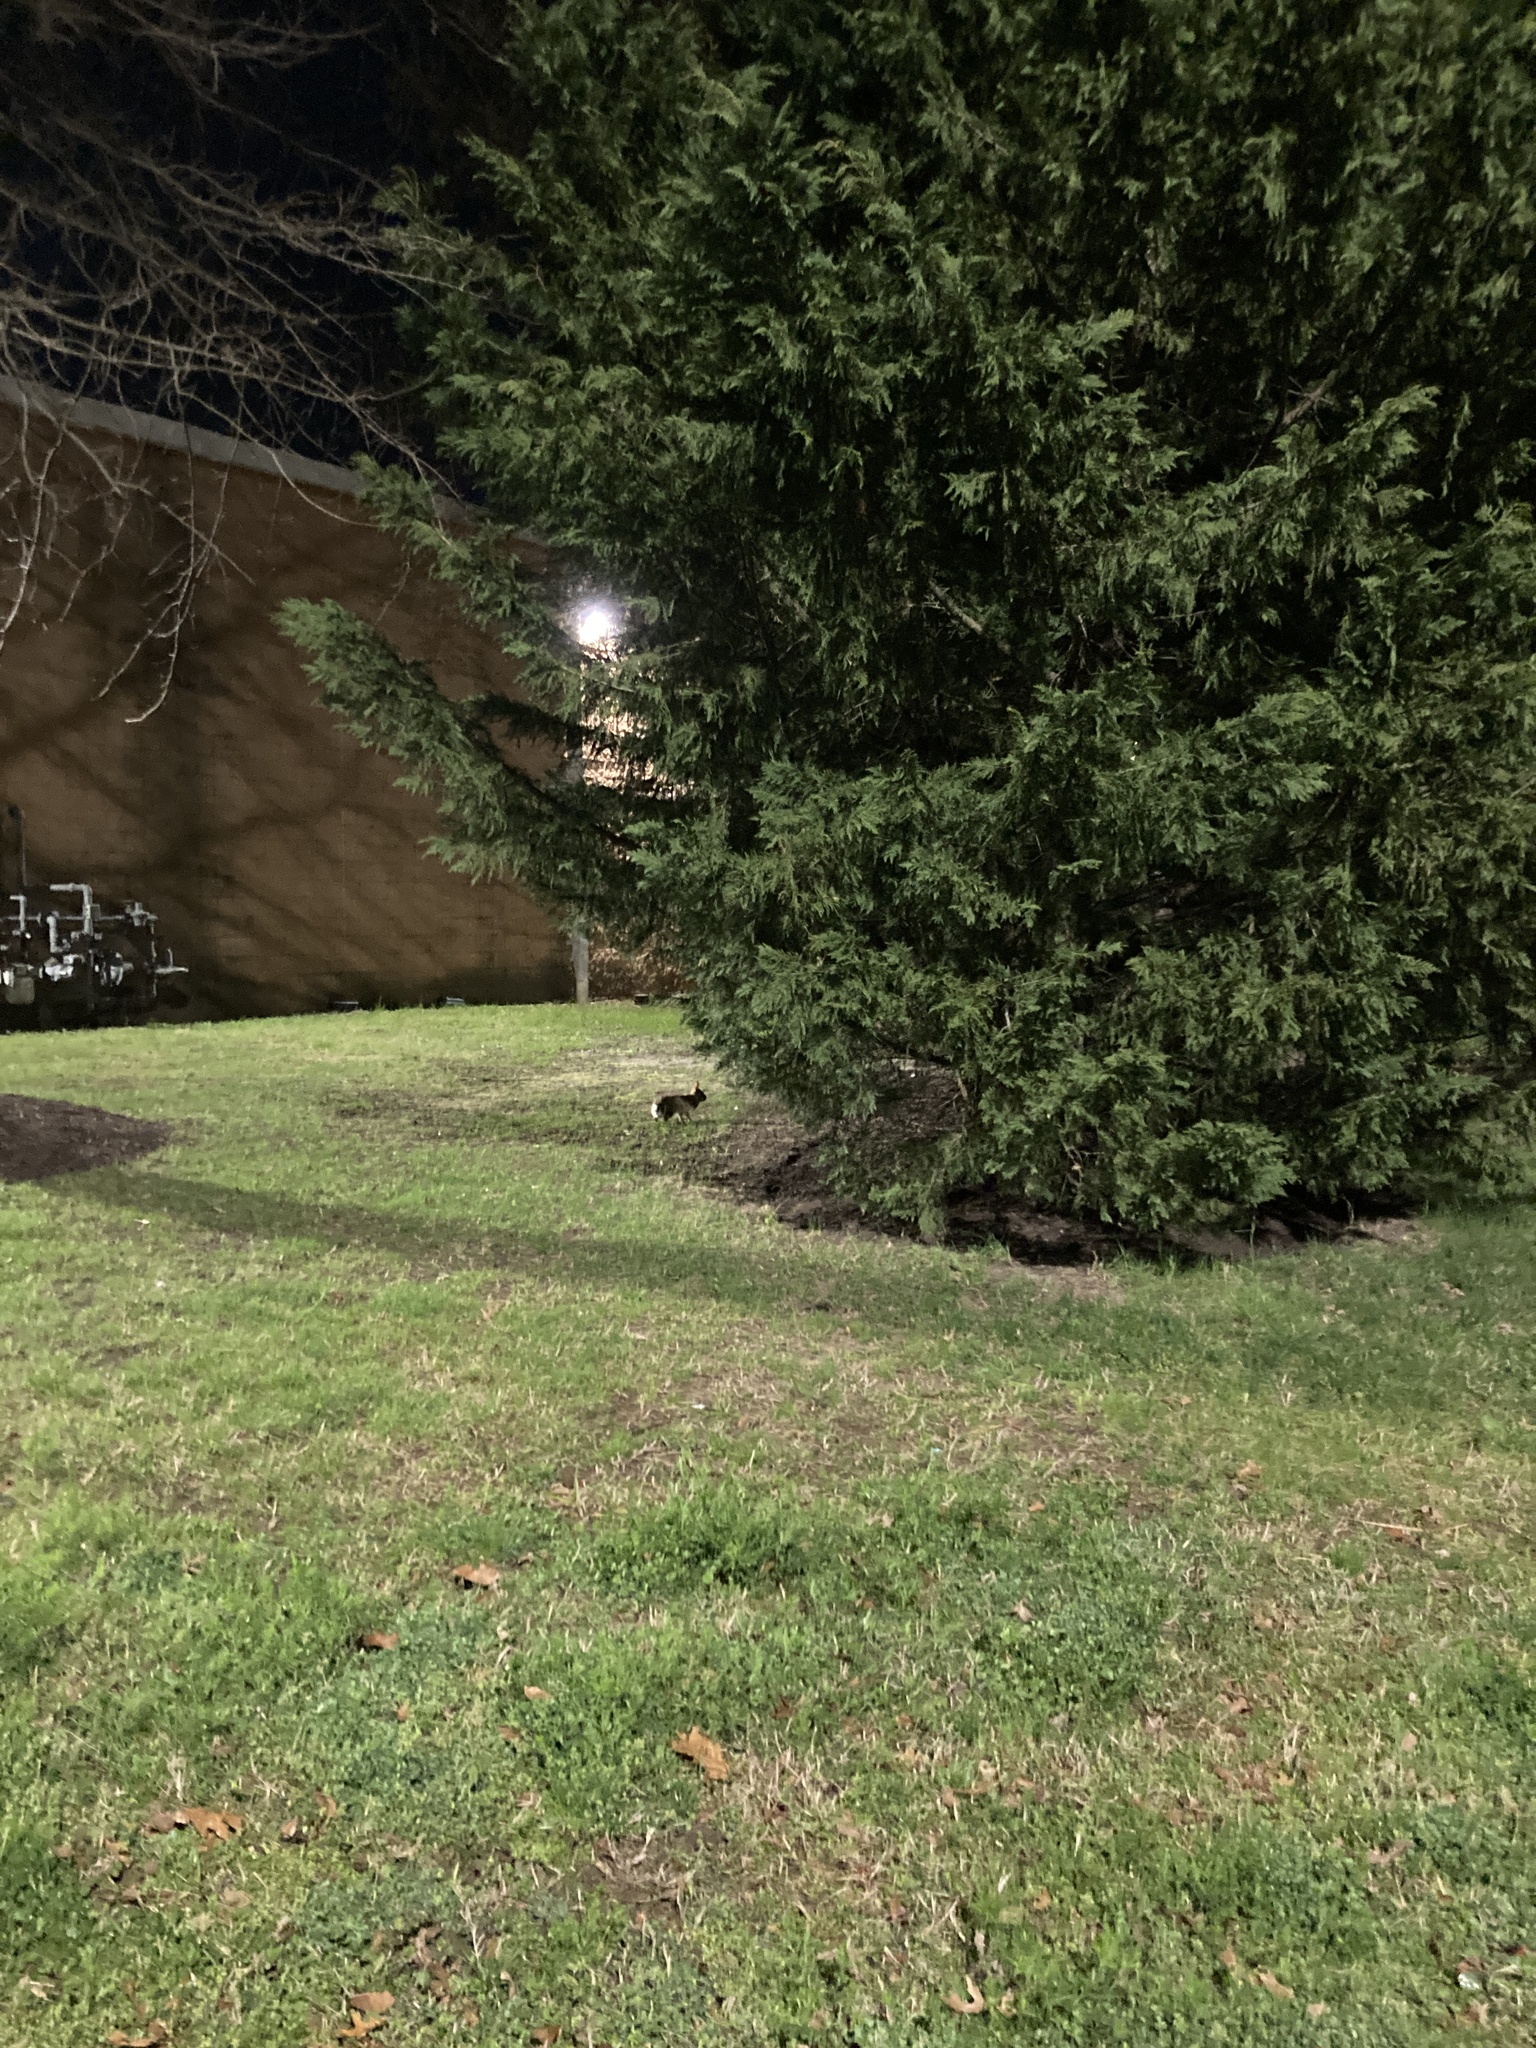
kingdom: Animalia
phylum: Chordata
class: Mammalia
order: Lagomorpha
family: Leporidae
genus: Sylvilagus
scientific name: Sylvilagus floridanus
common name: Eastern cottontail
